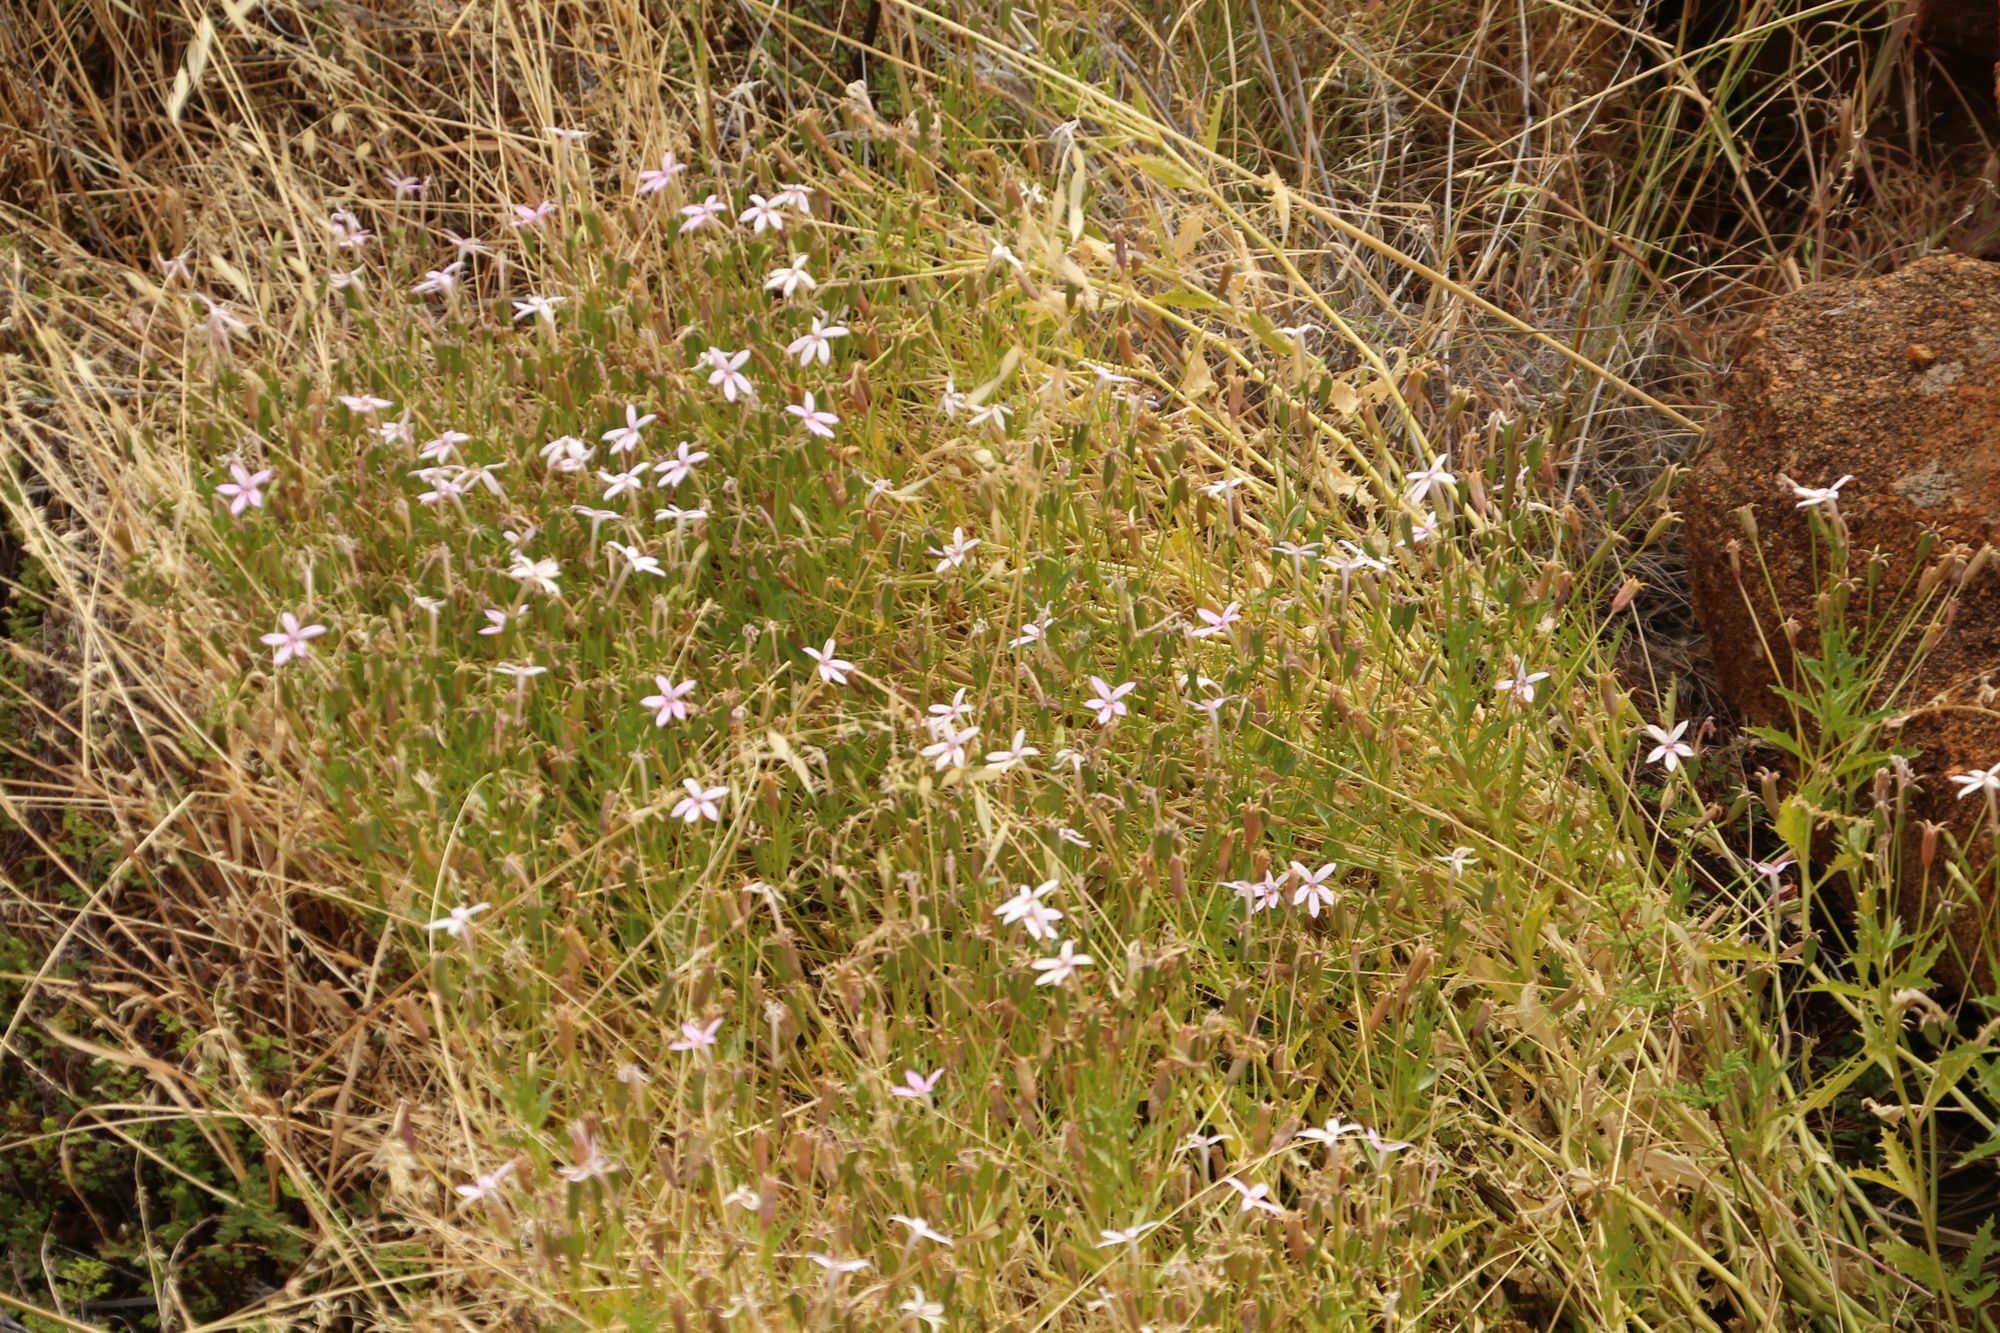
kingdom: Plantae
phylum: Tracheophyta
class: Magnoliopsida
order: Asterales
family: Campanulaceae
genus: Lithotoma
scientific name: Lithotoma petraea
